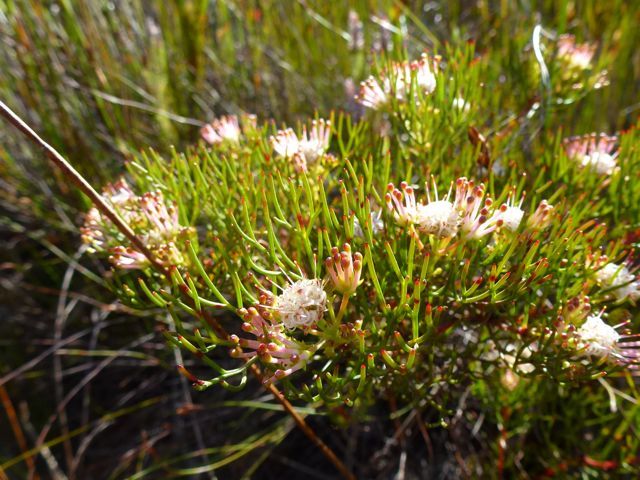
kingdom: Plantae
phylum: Tracheophyta
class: Magnoliopsida
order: Proteales
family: Proteaceae
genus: Serruria
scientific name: Serruria fasciflora
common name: Common pin spiderhead
